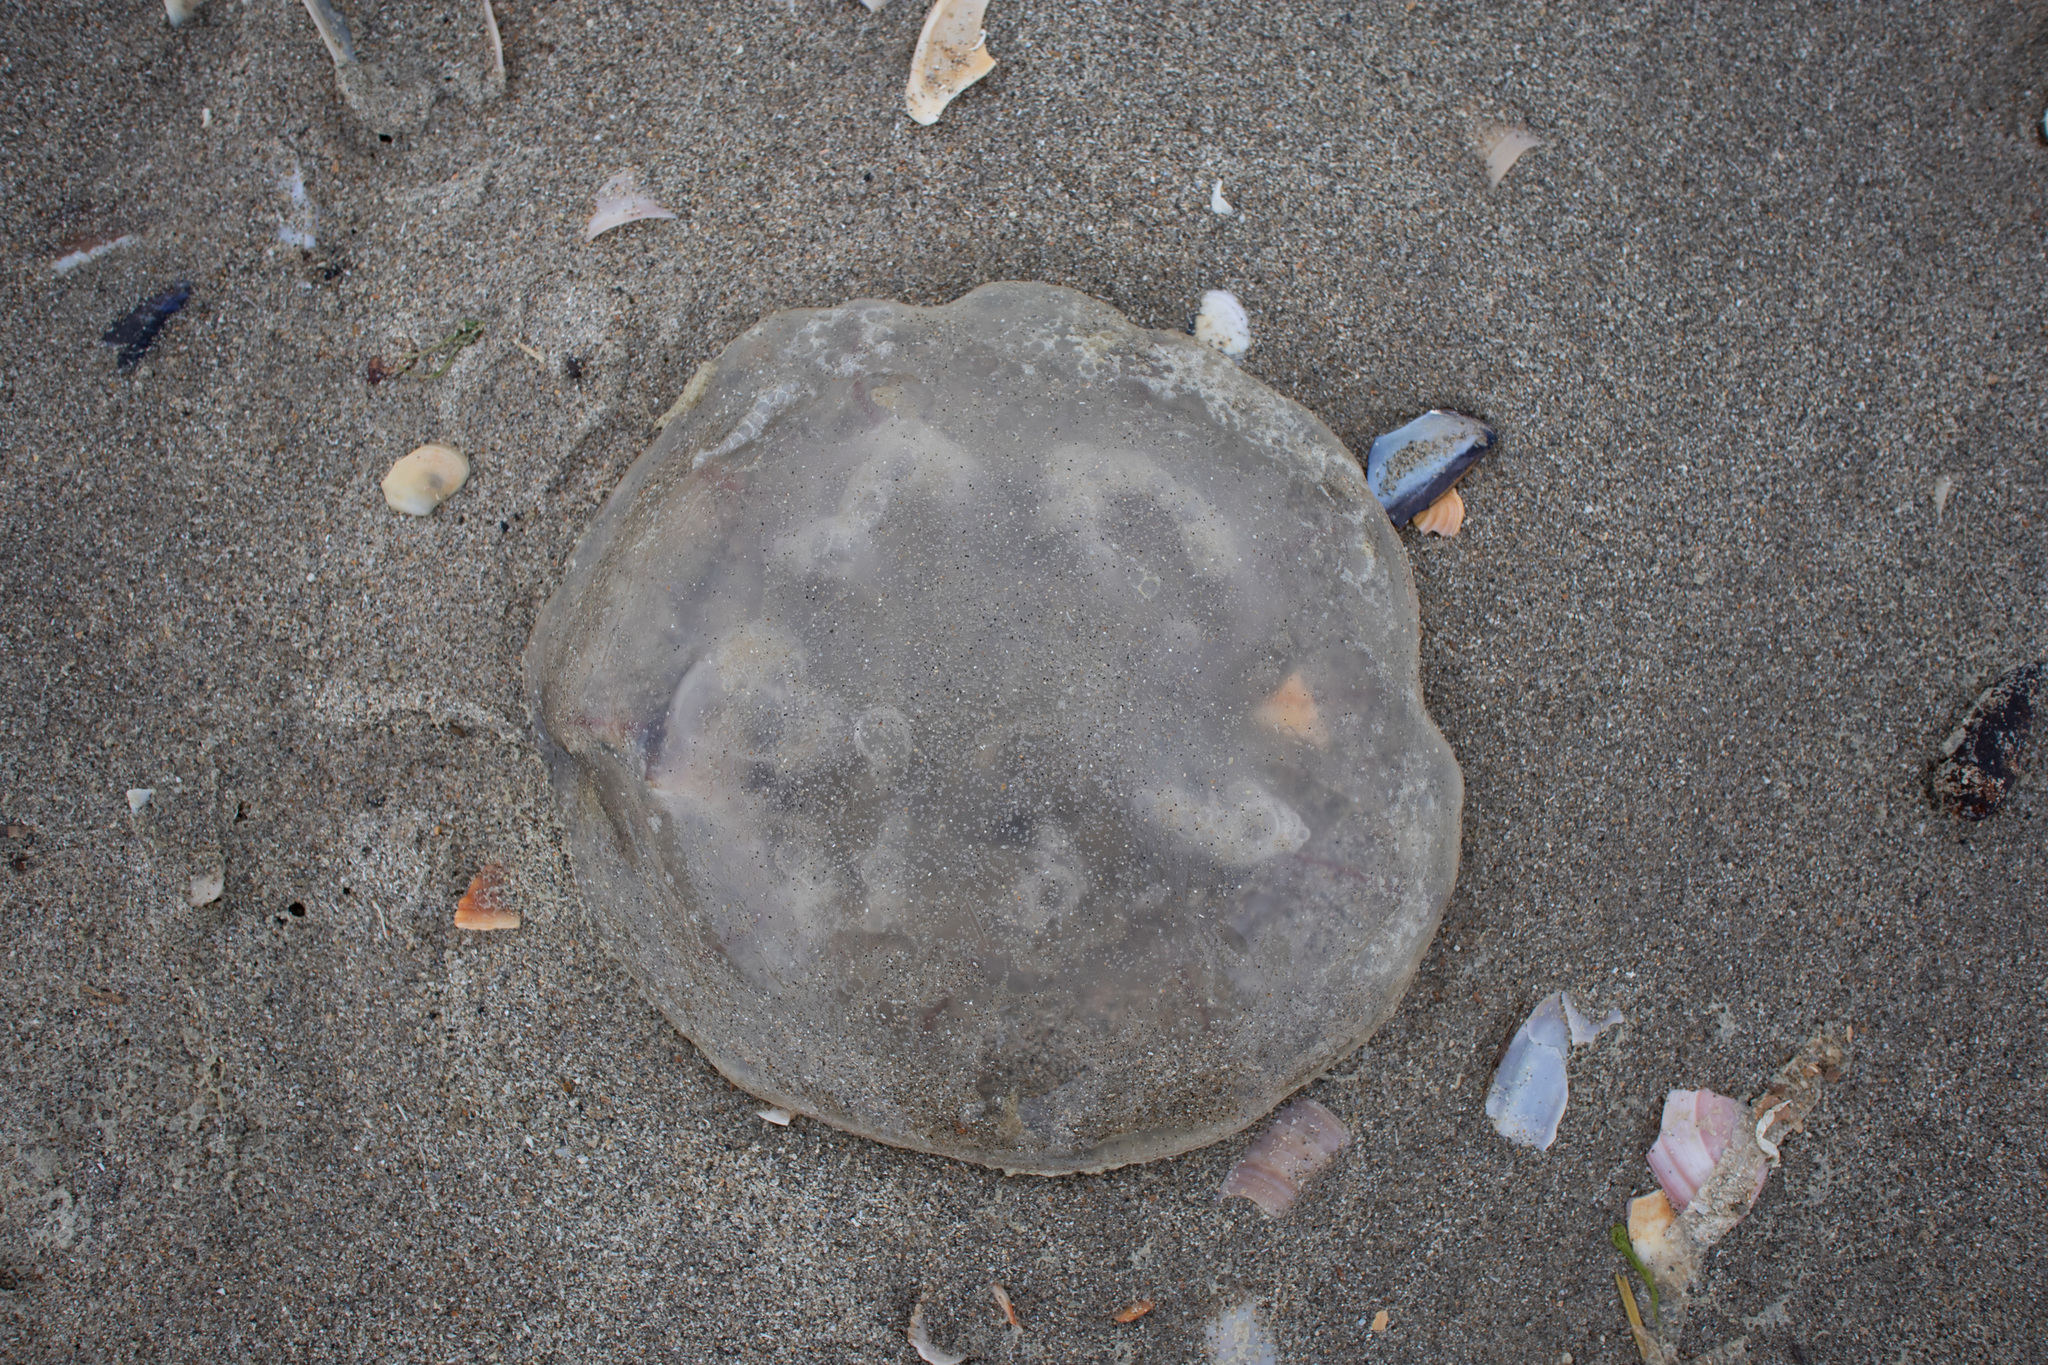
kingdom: Animalia
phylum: Cnidaria
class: Scyphozoa
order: Semaeostomeae
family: Ulmaridae
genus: Aurelia
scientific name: Aurelia aurita
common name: Moon jellyfish
